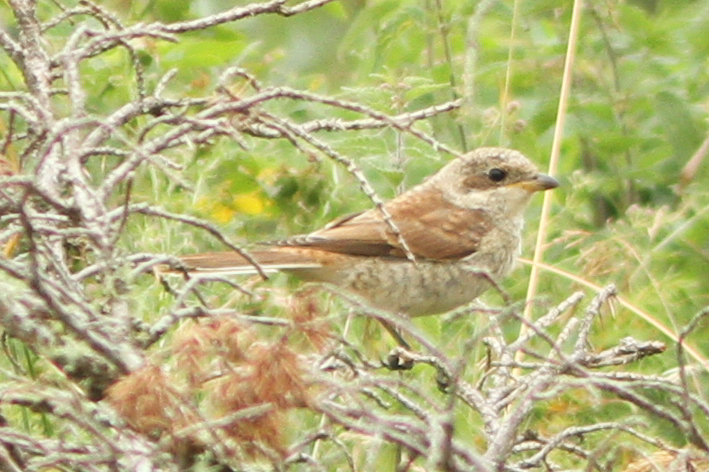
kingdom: Animalia
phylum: Chordata
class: Aves
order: Passeriformes
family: Laniidae
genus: Lanius
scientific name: Lanius collurio
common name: Red-backed shrike
